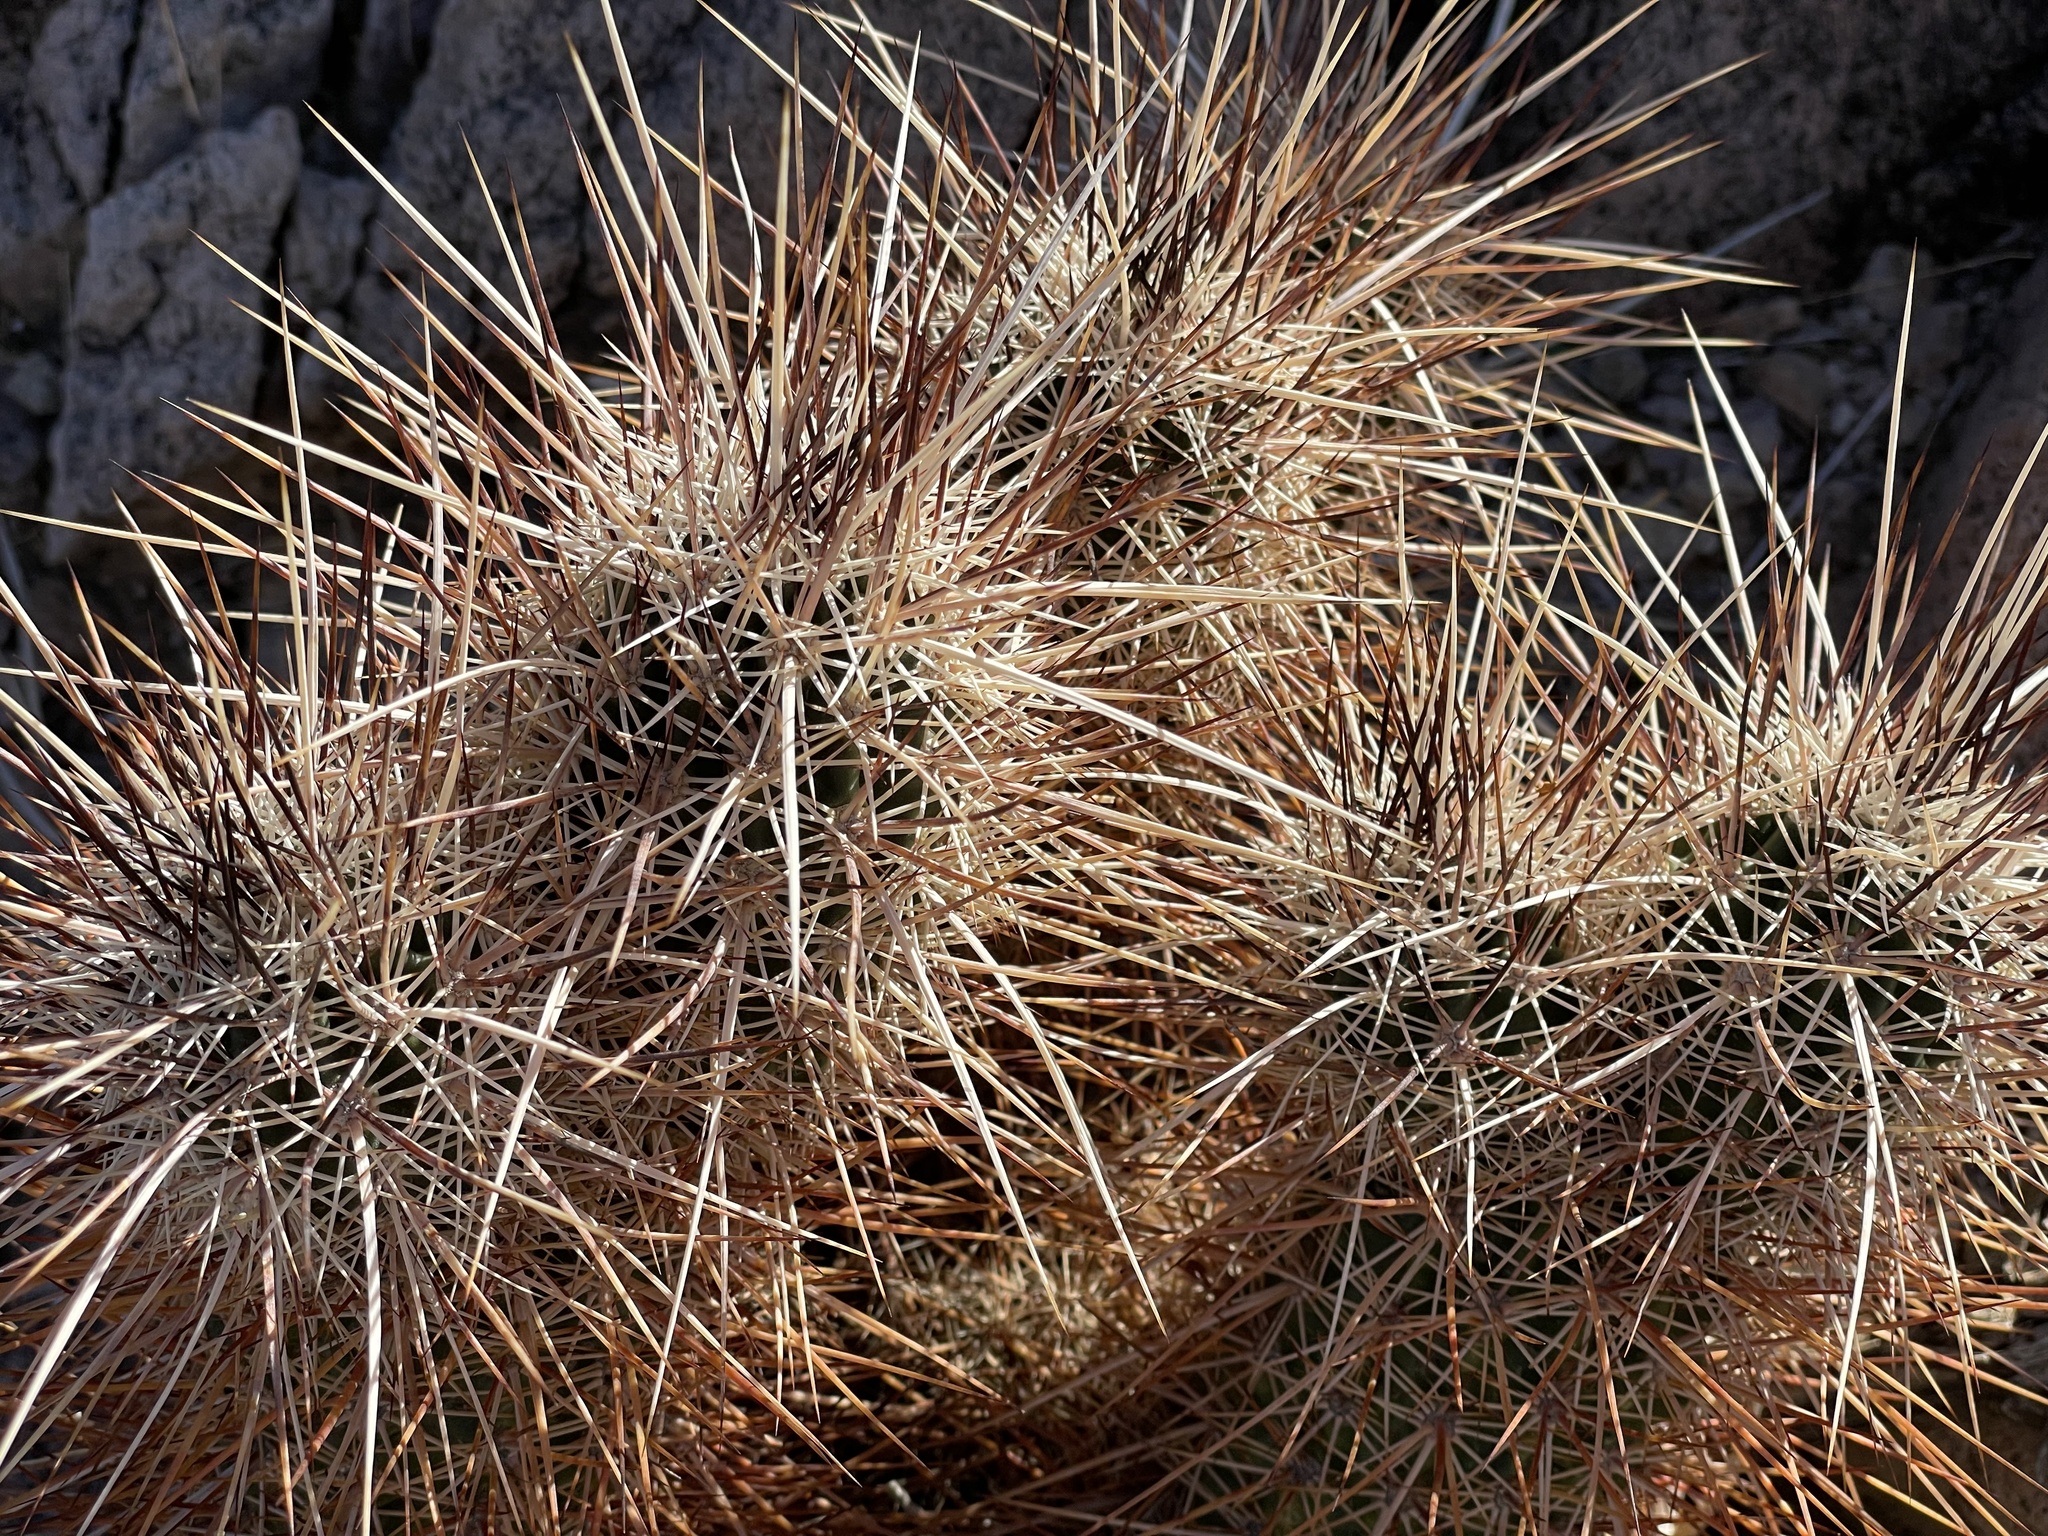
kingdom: Plantae
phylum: Tracheophyta
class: Magnoliopsida
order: Caryophyllales
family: Cactaceae
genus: Echinocereus
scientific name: Echinocereus engelmannii
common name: Engelmann's hedgehog cactus
